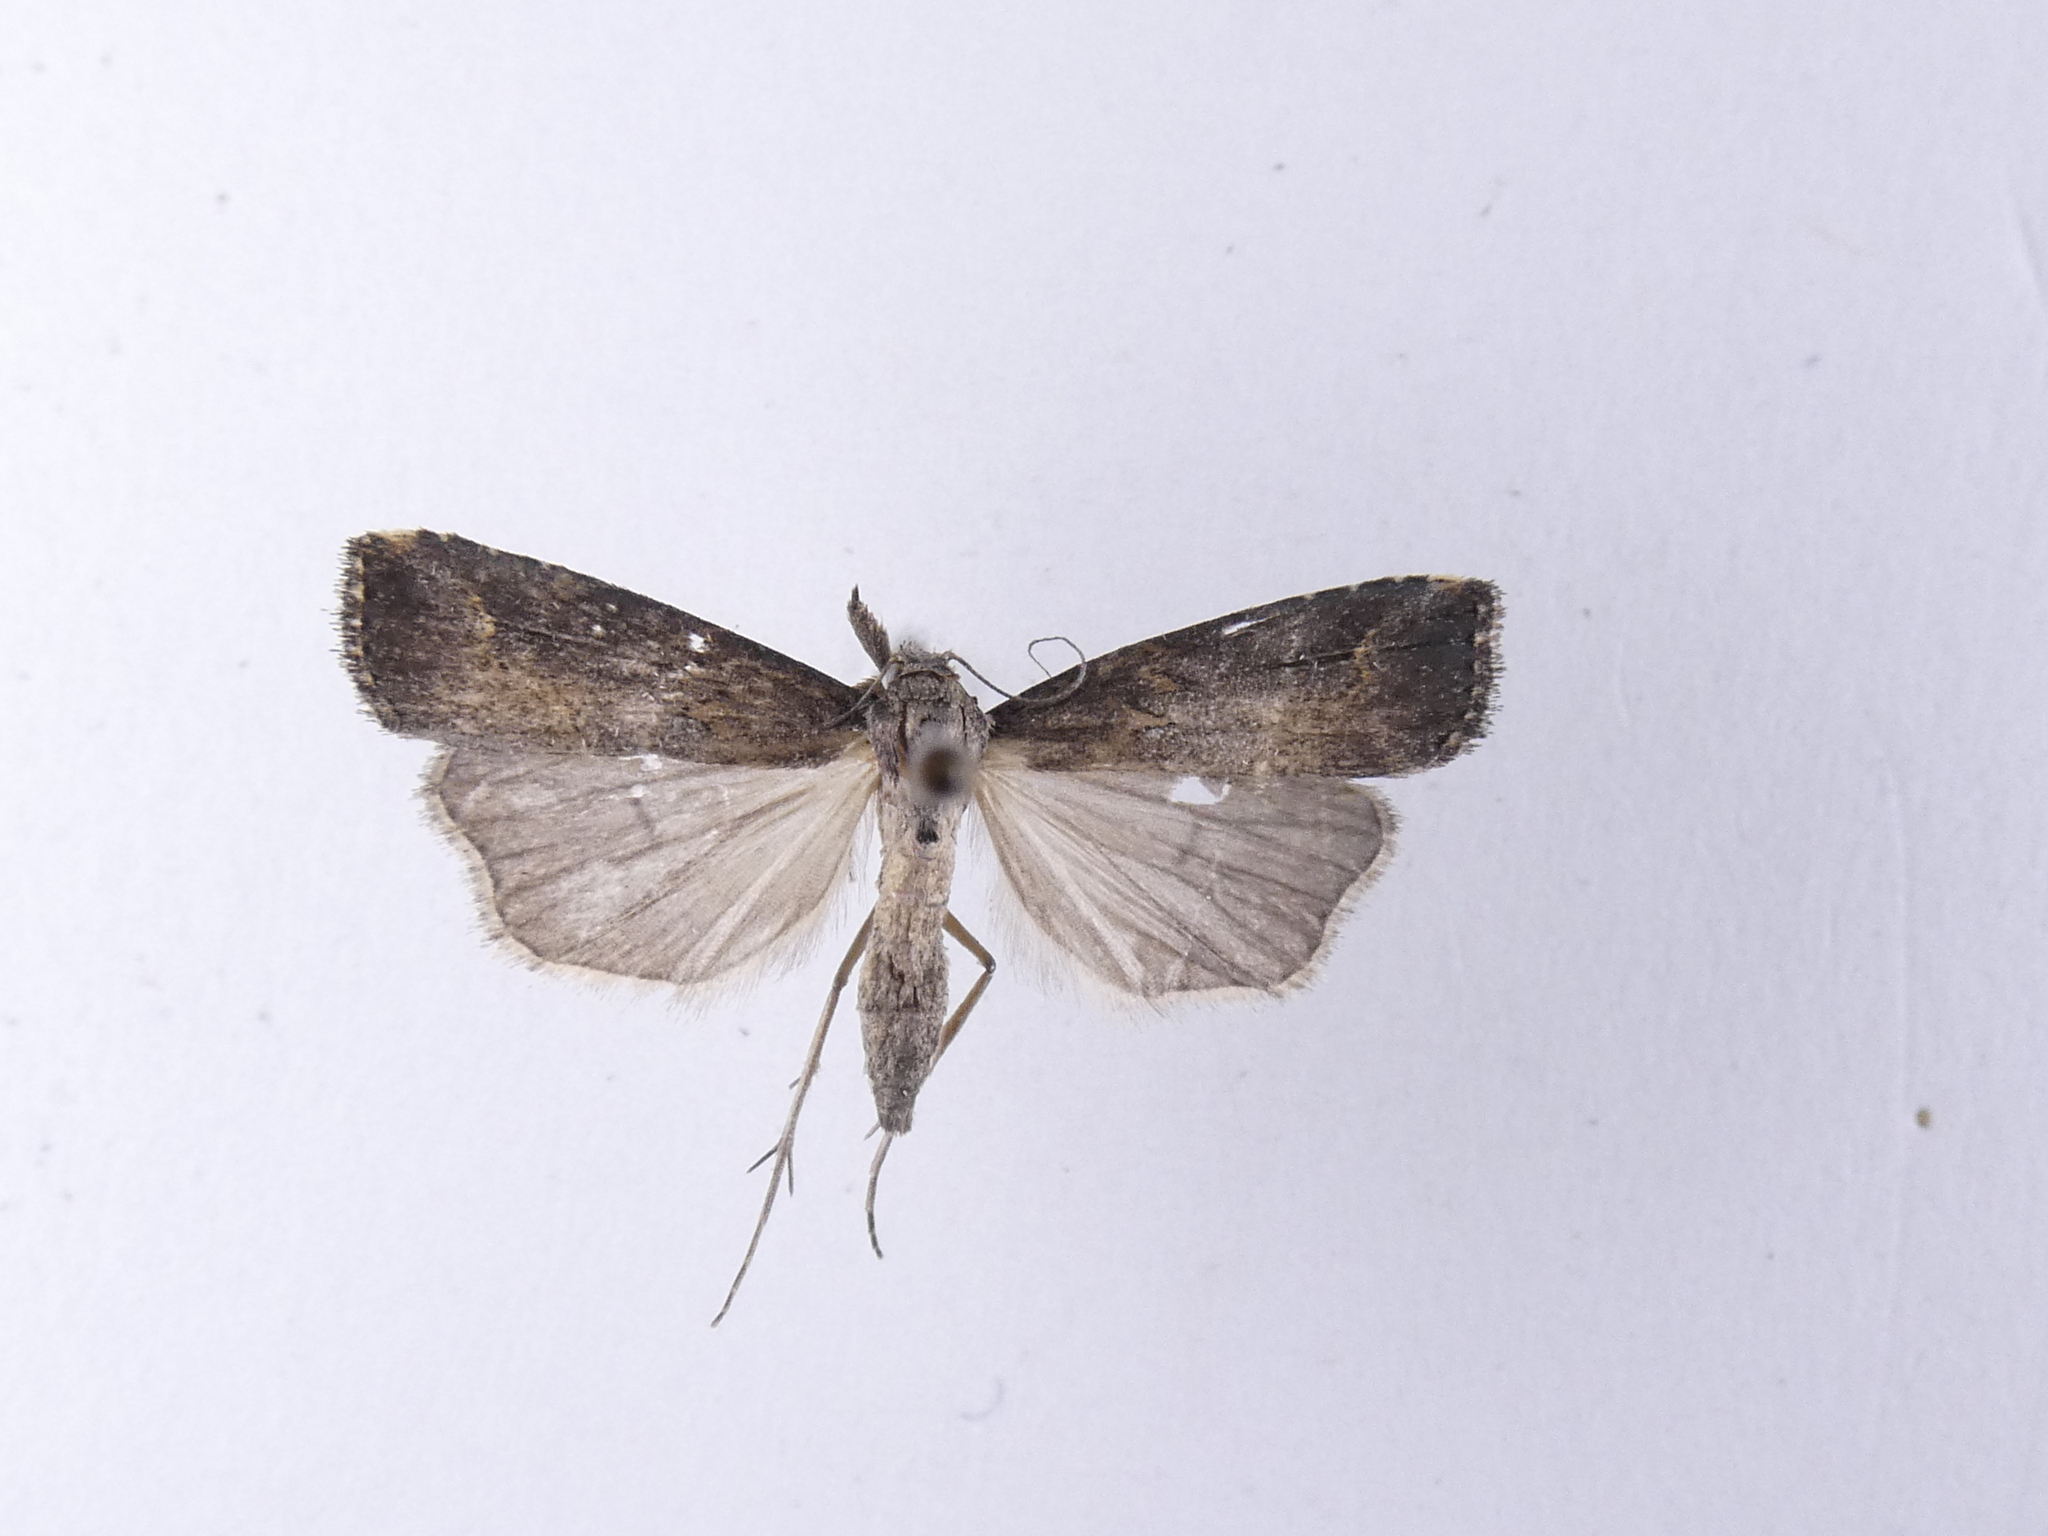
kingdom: Animalia
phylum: Arthropoda
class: Insecta
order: Lepidoptera
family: Erebidae
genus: Schrankia
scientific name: Schrankia costaestrigalis
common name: Pinion-streaked snout
